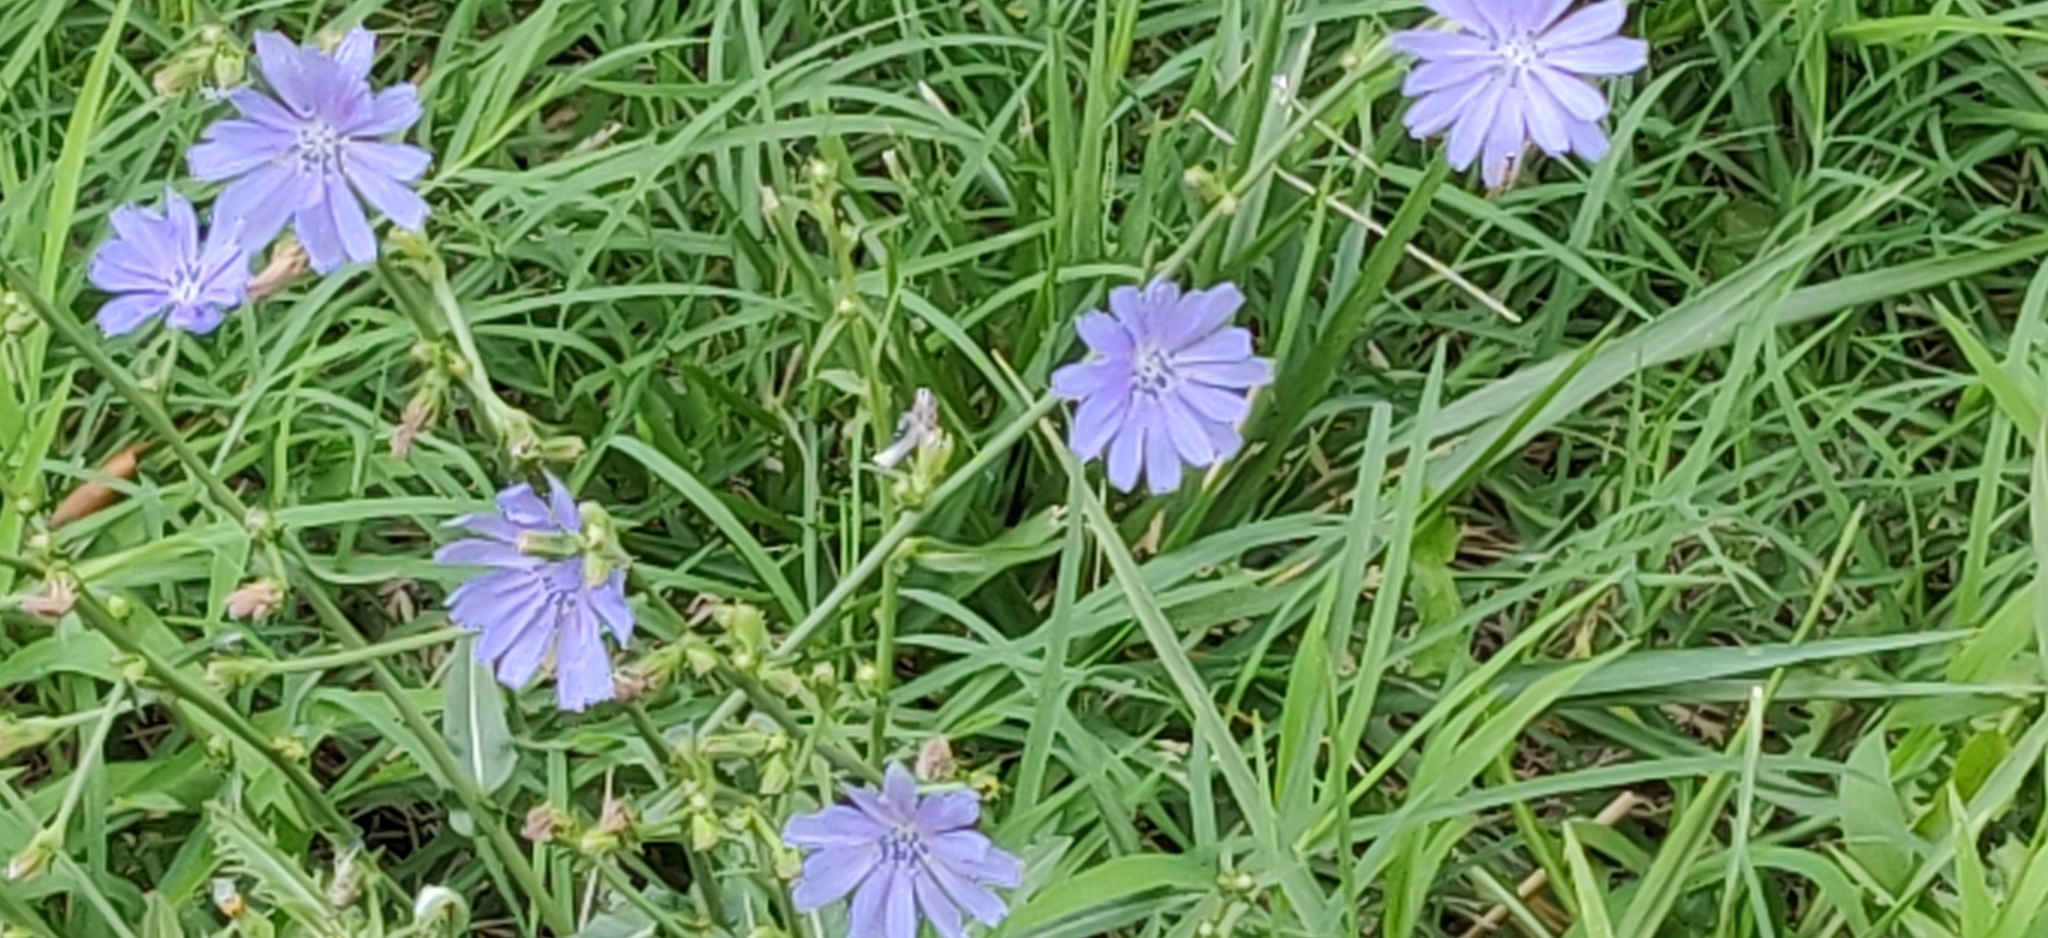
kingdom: Plantae
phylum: Tracheophyta
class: Magnoliopsida
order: Asterales
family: Asteraceae
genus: Cichorium
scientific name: Cichorium intybus
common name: Chicory
